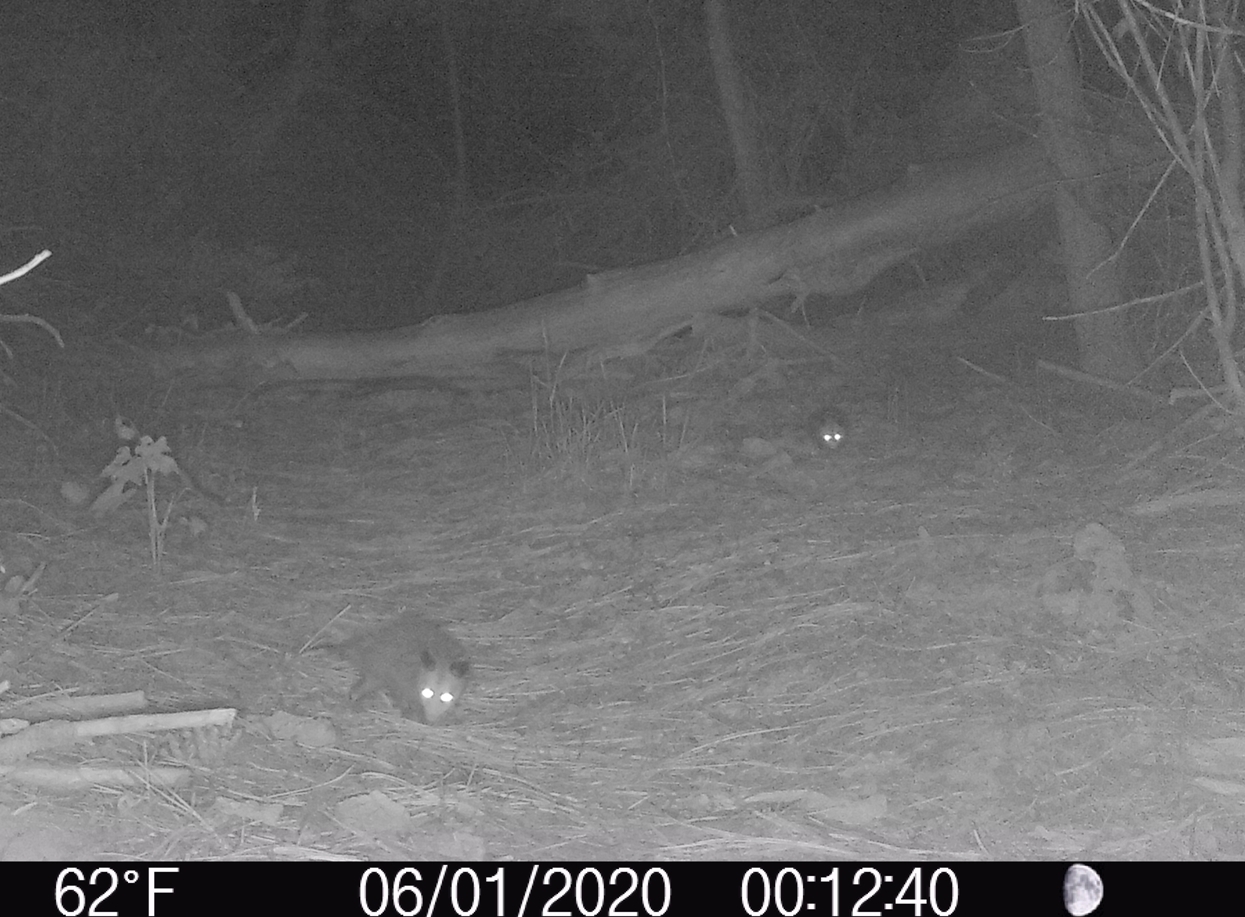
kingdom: Animalia
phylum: Chordata
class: Mammalia
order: Didelphimorphia
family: Didelphidae
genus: Didelphis
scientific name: Didelphis virginiana
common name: Virginia opossum
